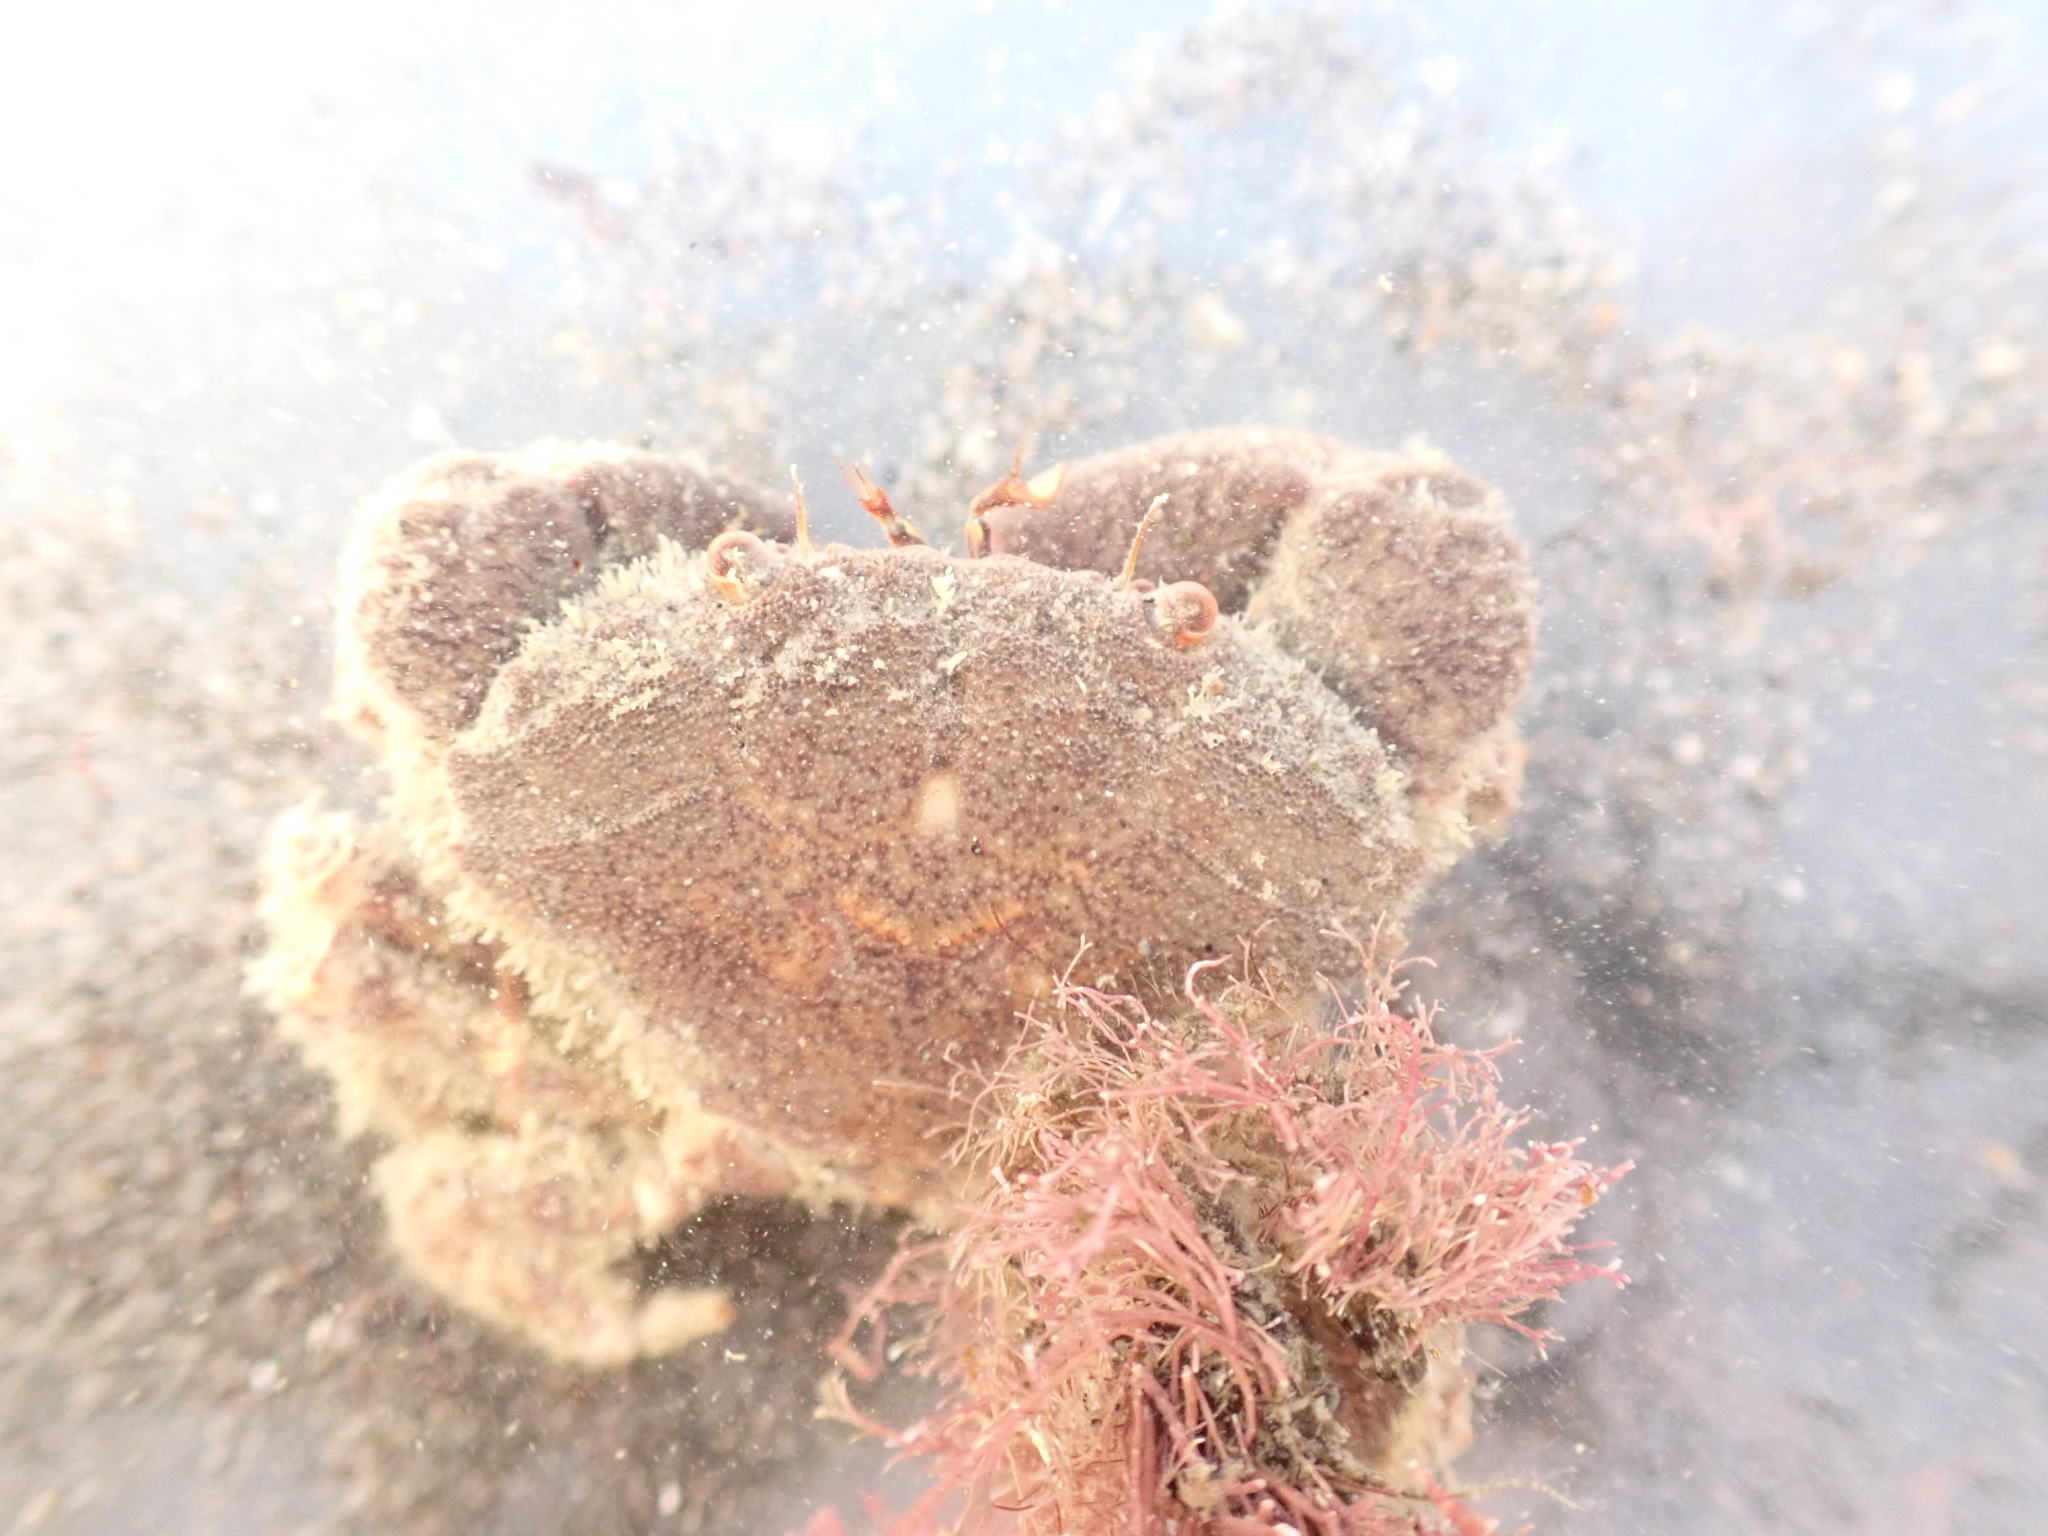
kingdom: Animalia
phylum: Arthropoda
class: Malacostraca
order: Decapoda
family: Oziidae
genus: Ozius
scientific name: Ozius deplanatus
